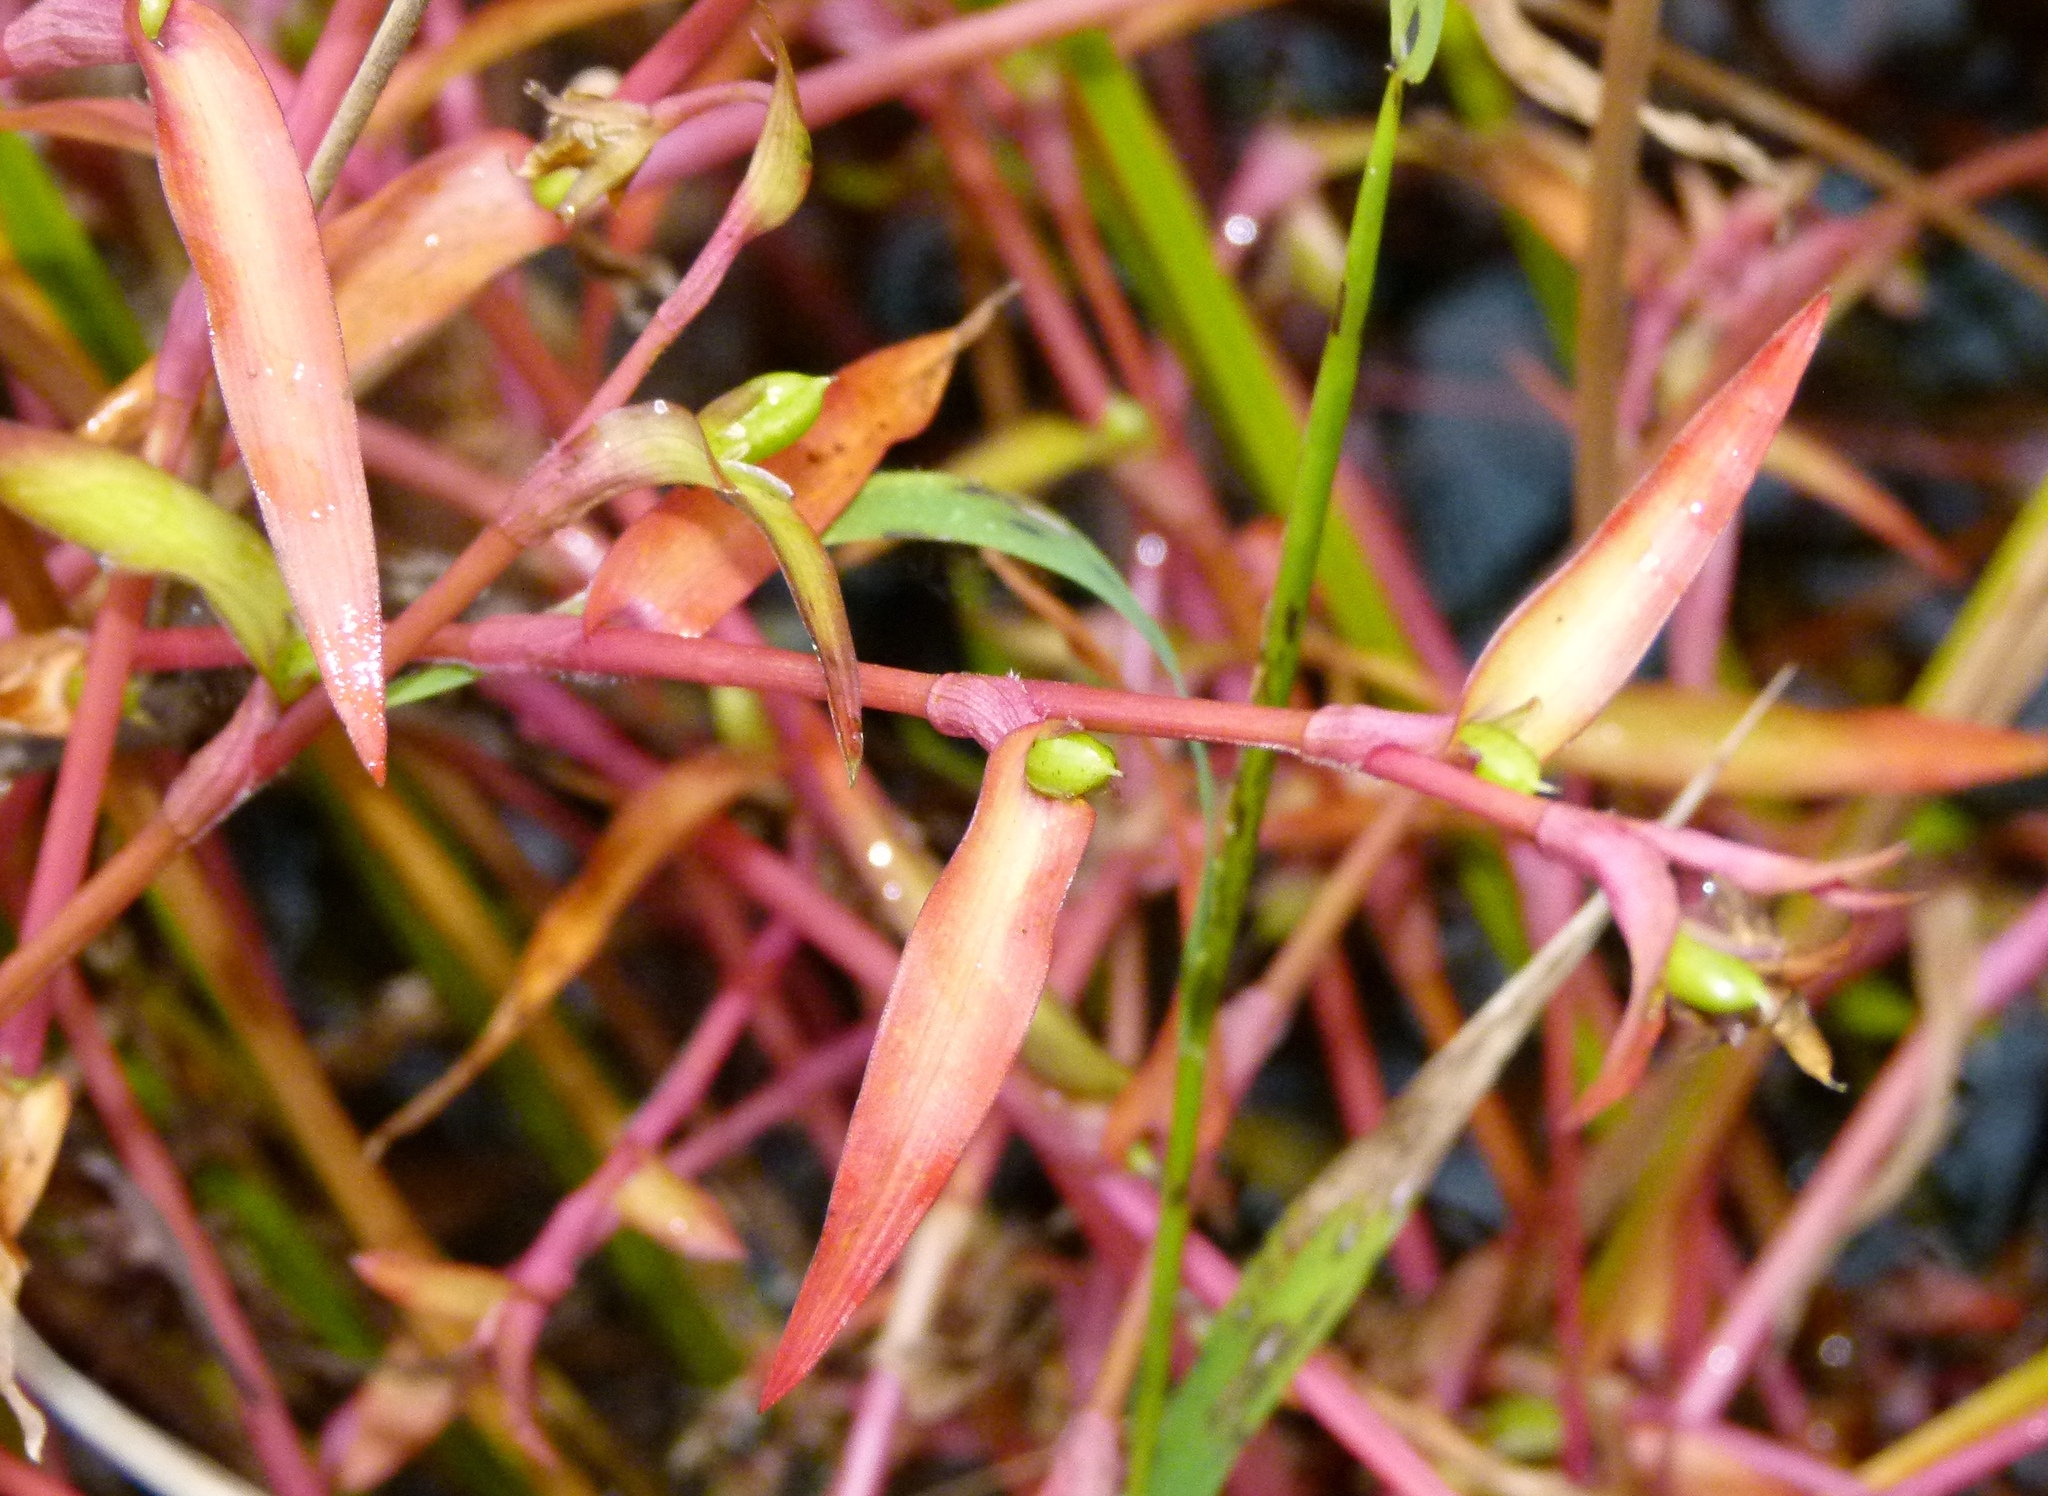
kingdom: Plantae
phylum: Tracheophyta
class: Liliopsida
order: Commelinales
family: Commelinaceae
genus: Murdannia
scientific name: Murdannia keisak
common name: Wartremoving herb
